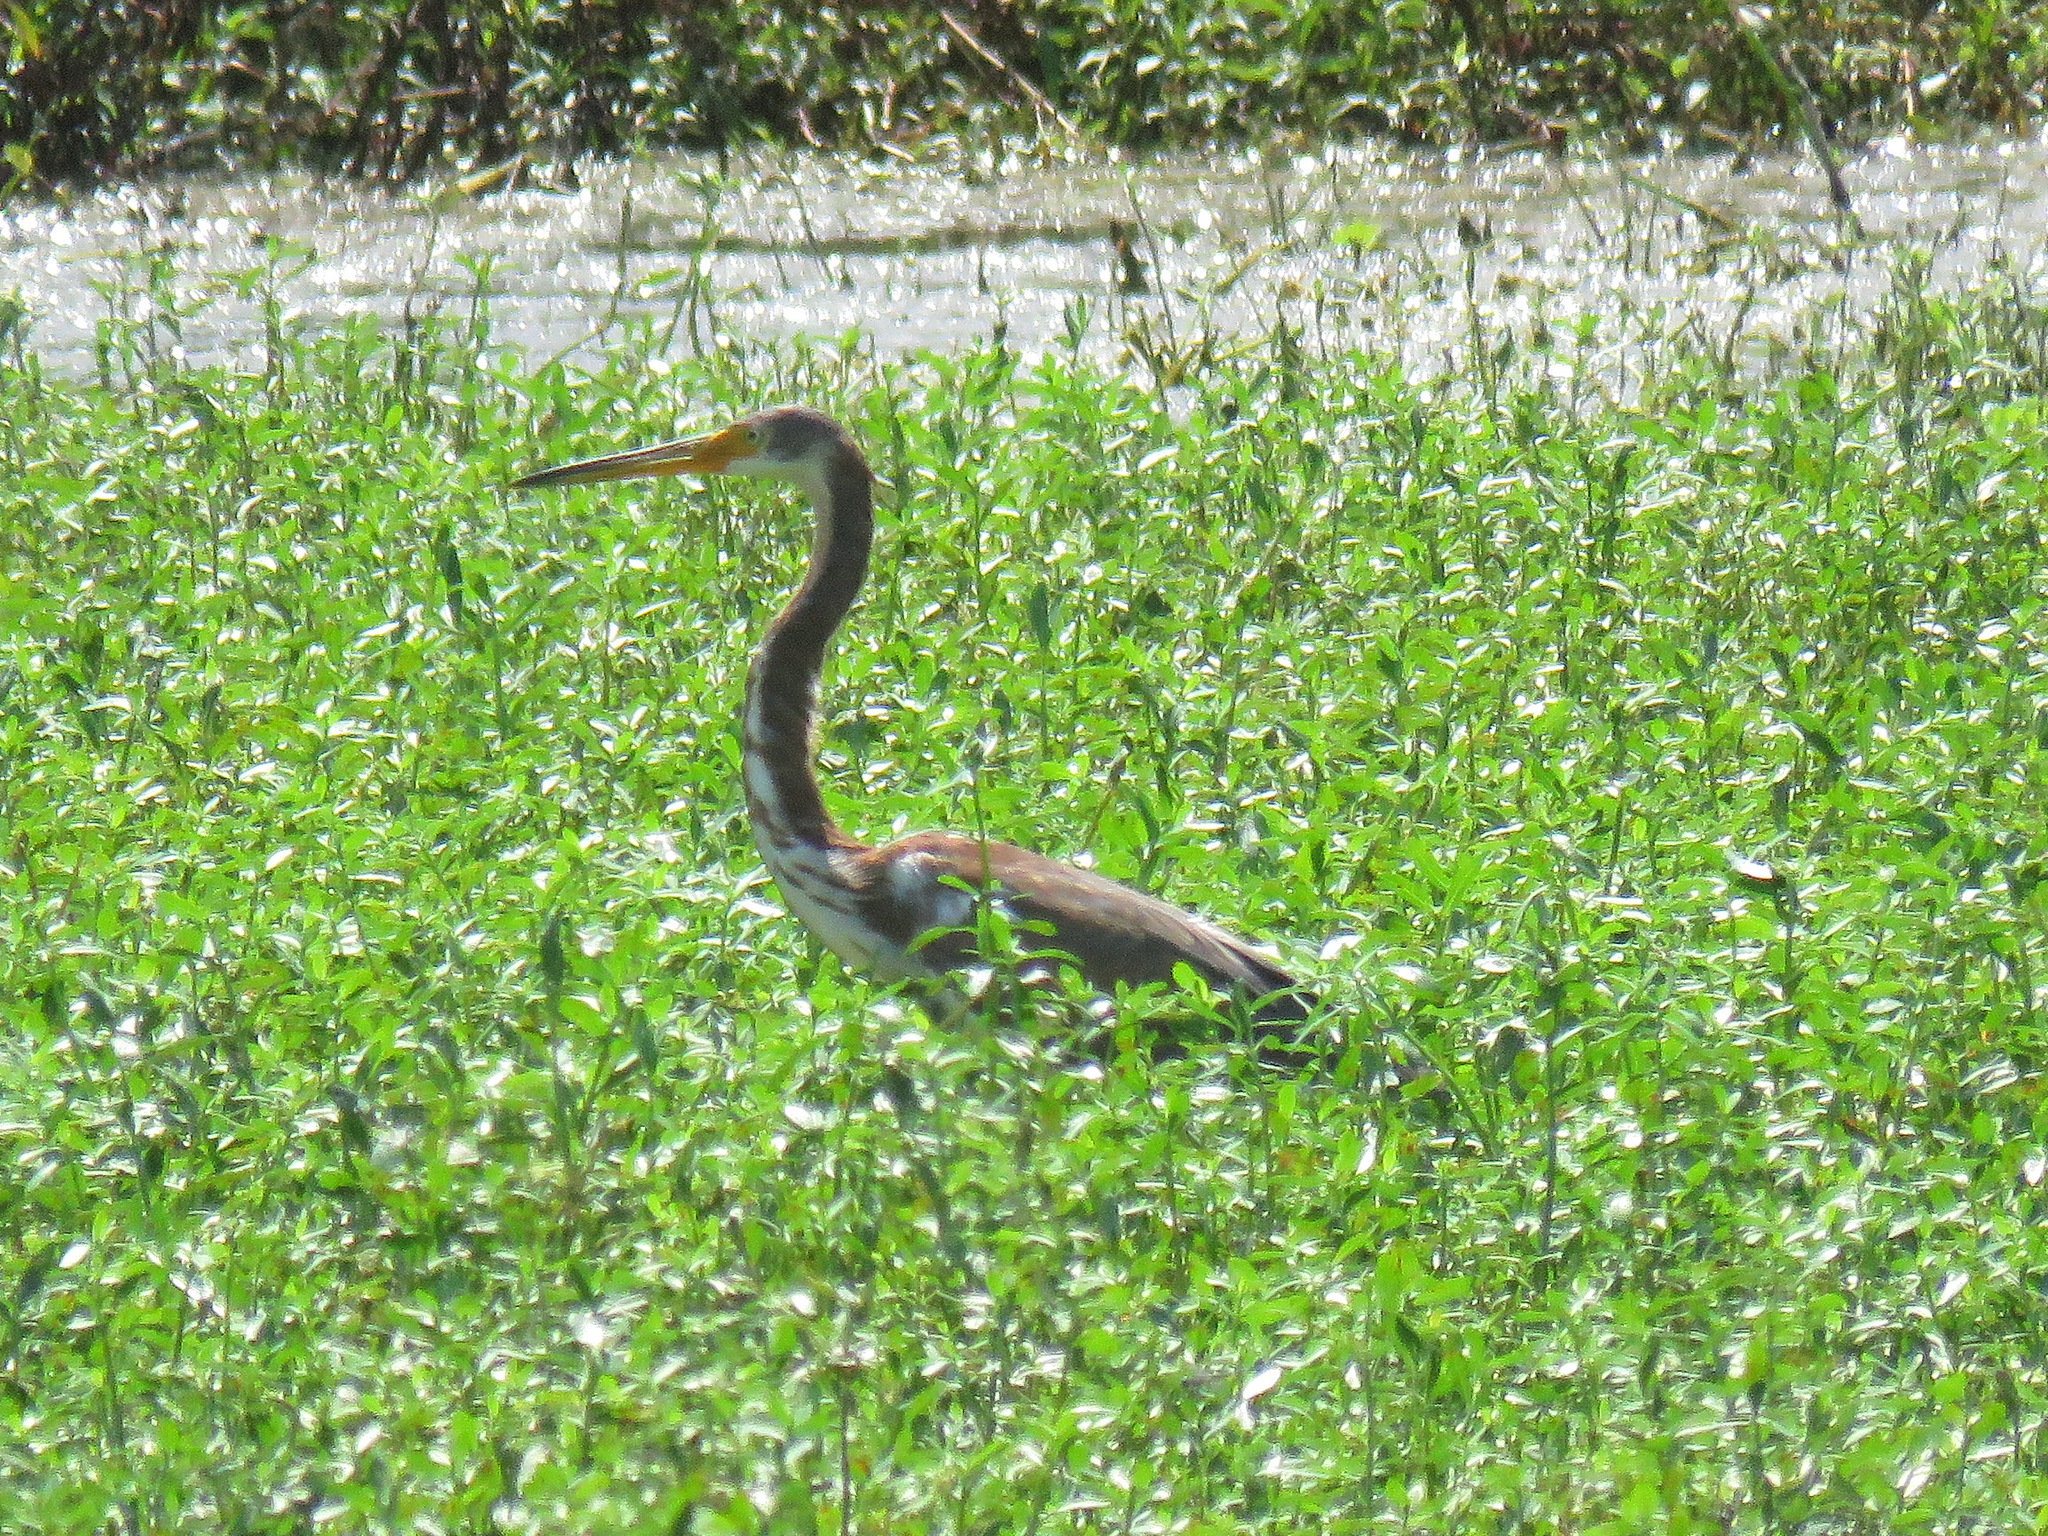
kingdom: Animalia
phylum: Chordata
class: Aves
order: Pelecaniformes
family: Ardeidae
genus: Egretta
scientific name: Egretta tricolor
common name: Tricolored heron
